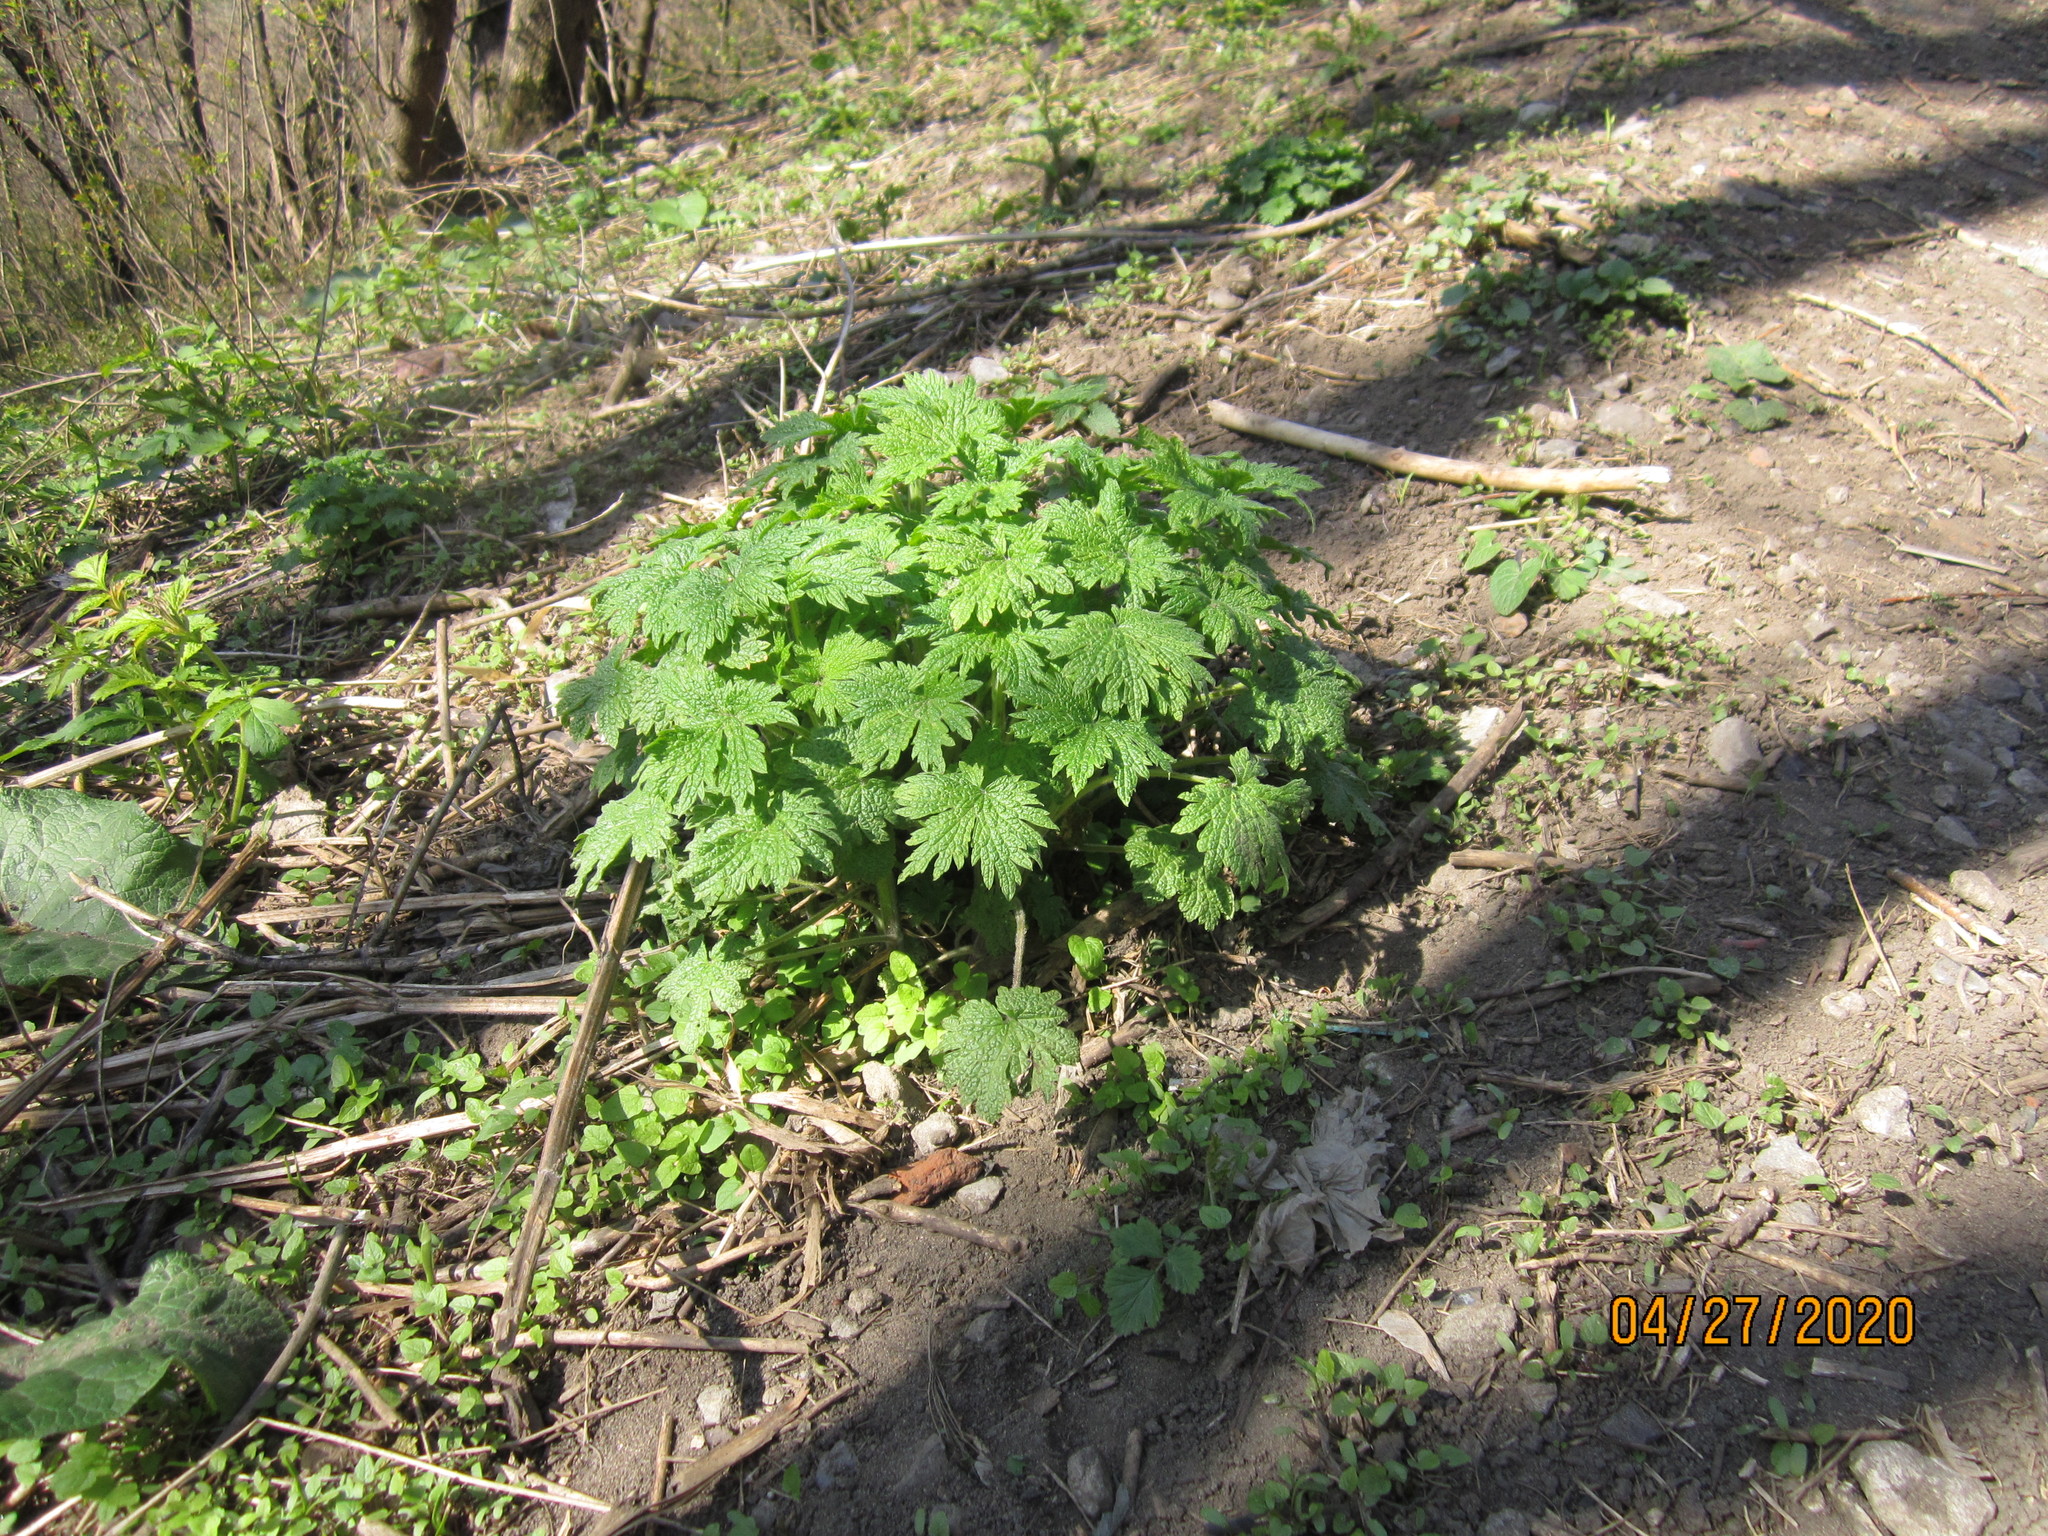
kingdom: Plantae
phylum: Tracheophyta
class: Magnoliopsida
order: Lamiales
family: Lamiaceae
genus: Leonurus
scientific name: Leonurus quinquelobatus
